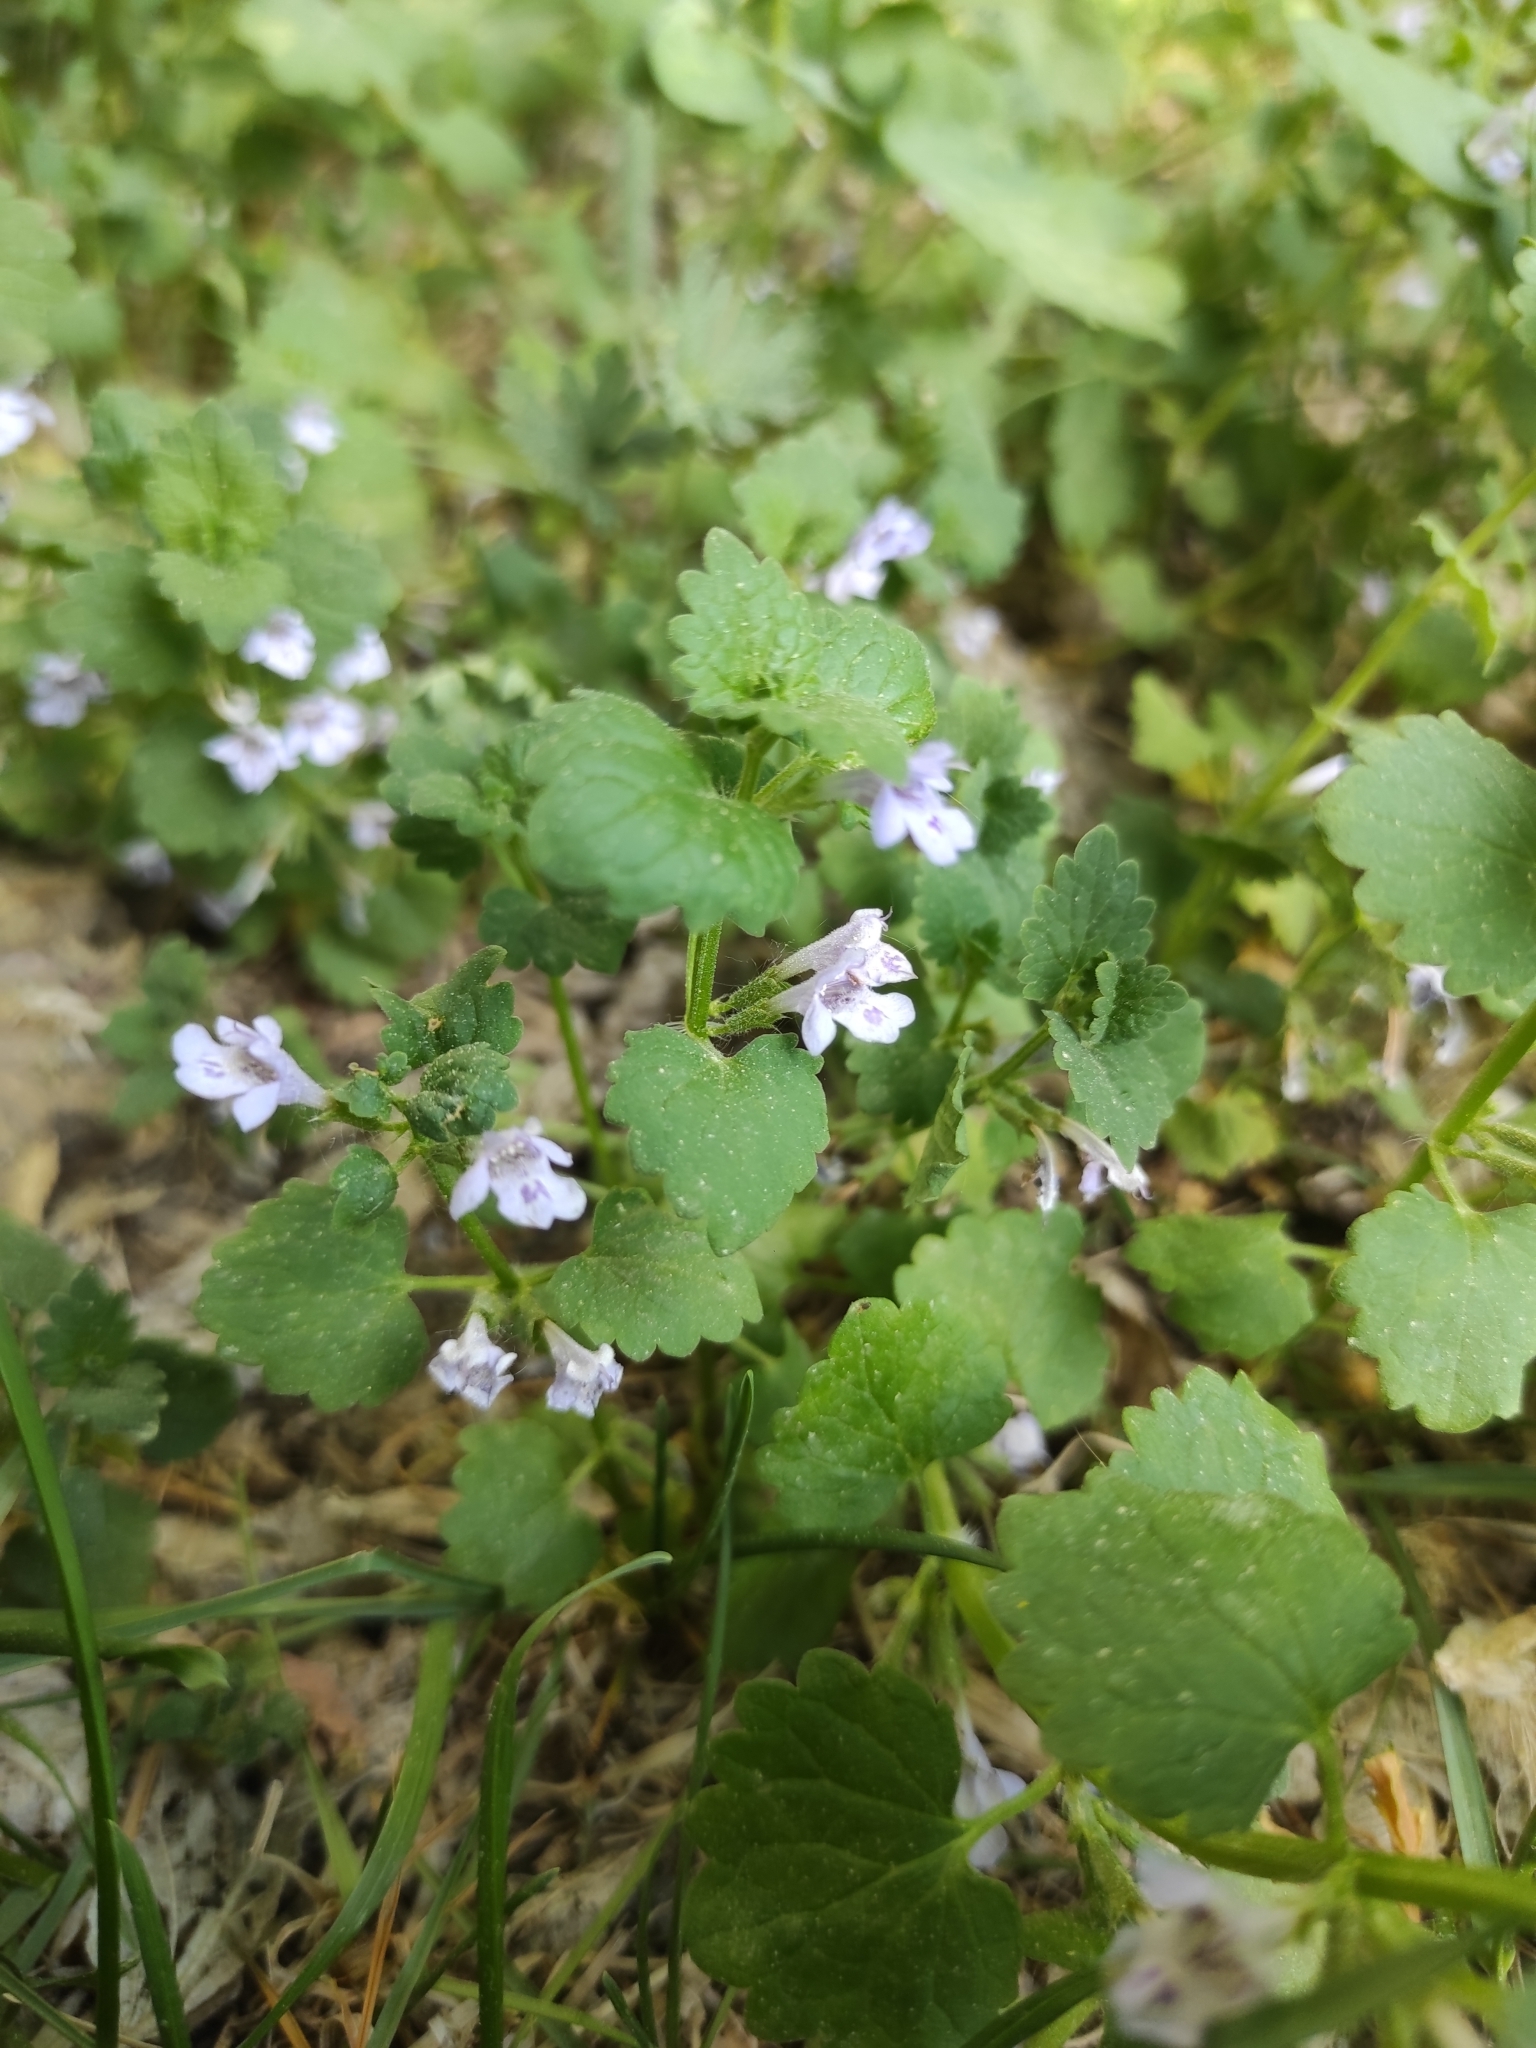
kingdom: Plantae
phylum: Tracheophyta
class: Magnoliopsida
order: Lamiales
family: Lamiaceae
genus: Glechoma
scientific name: Glechoma hederacea
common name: Ground ivy
